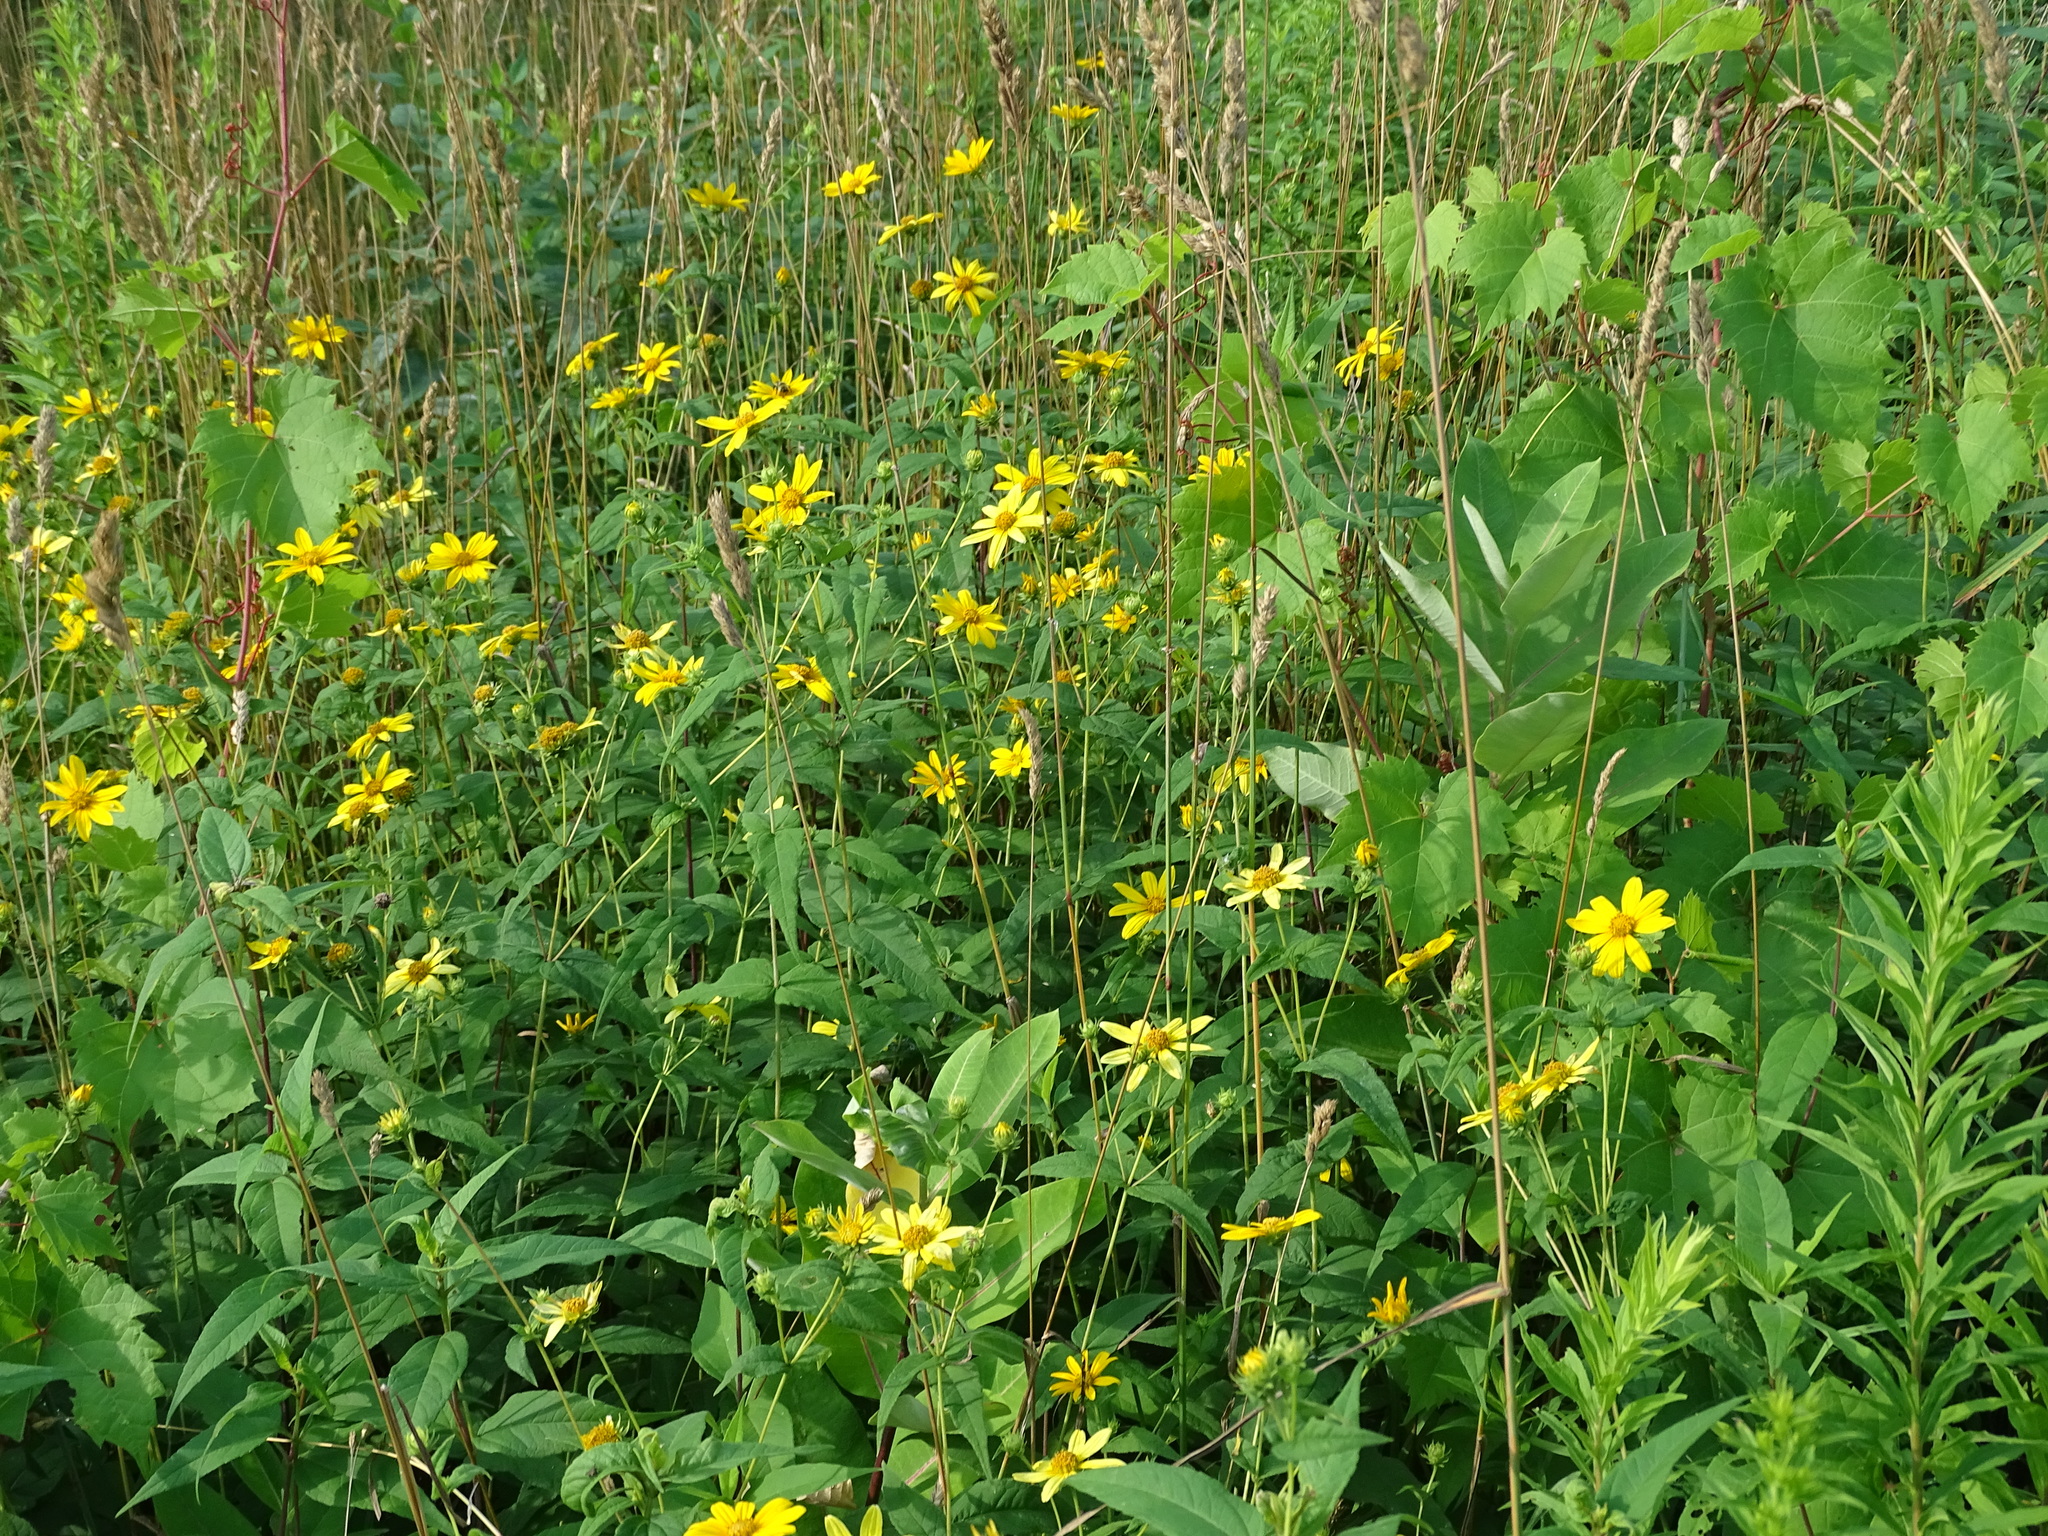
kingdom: Plantae
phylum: Tracheophyta
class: Magnoliopsida
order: Asterales
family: Asteraceae
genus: Helianthus
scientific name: Helianthus divaricatus
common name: Divergent sunflower
